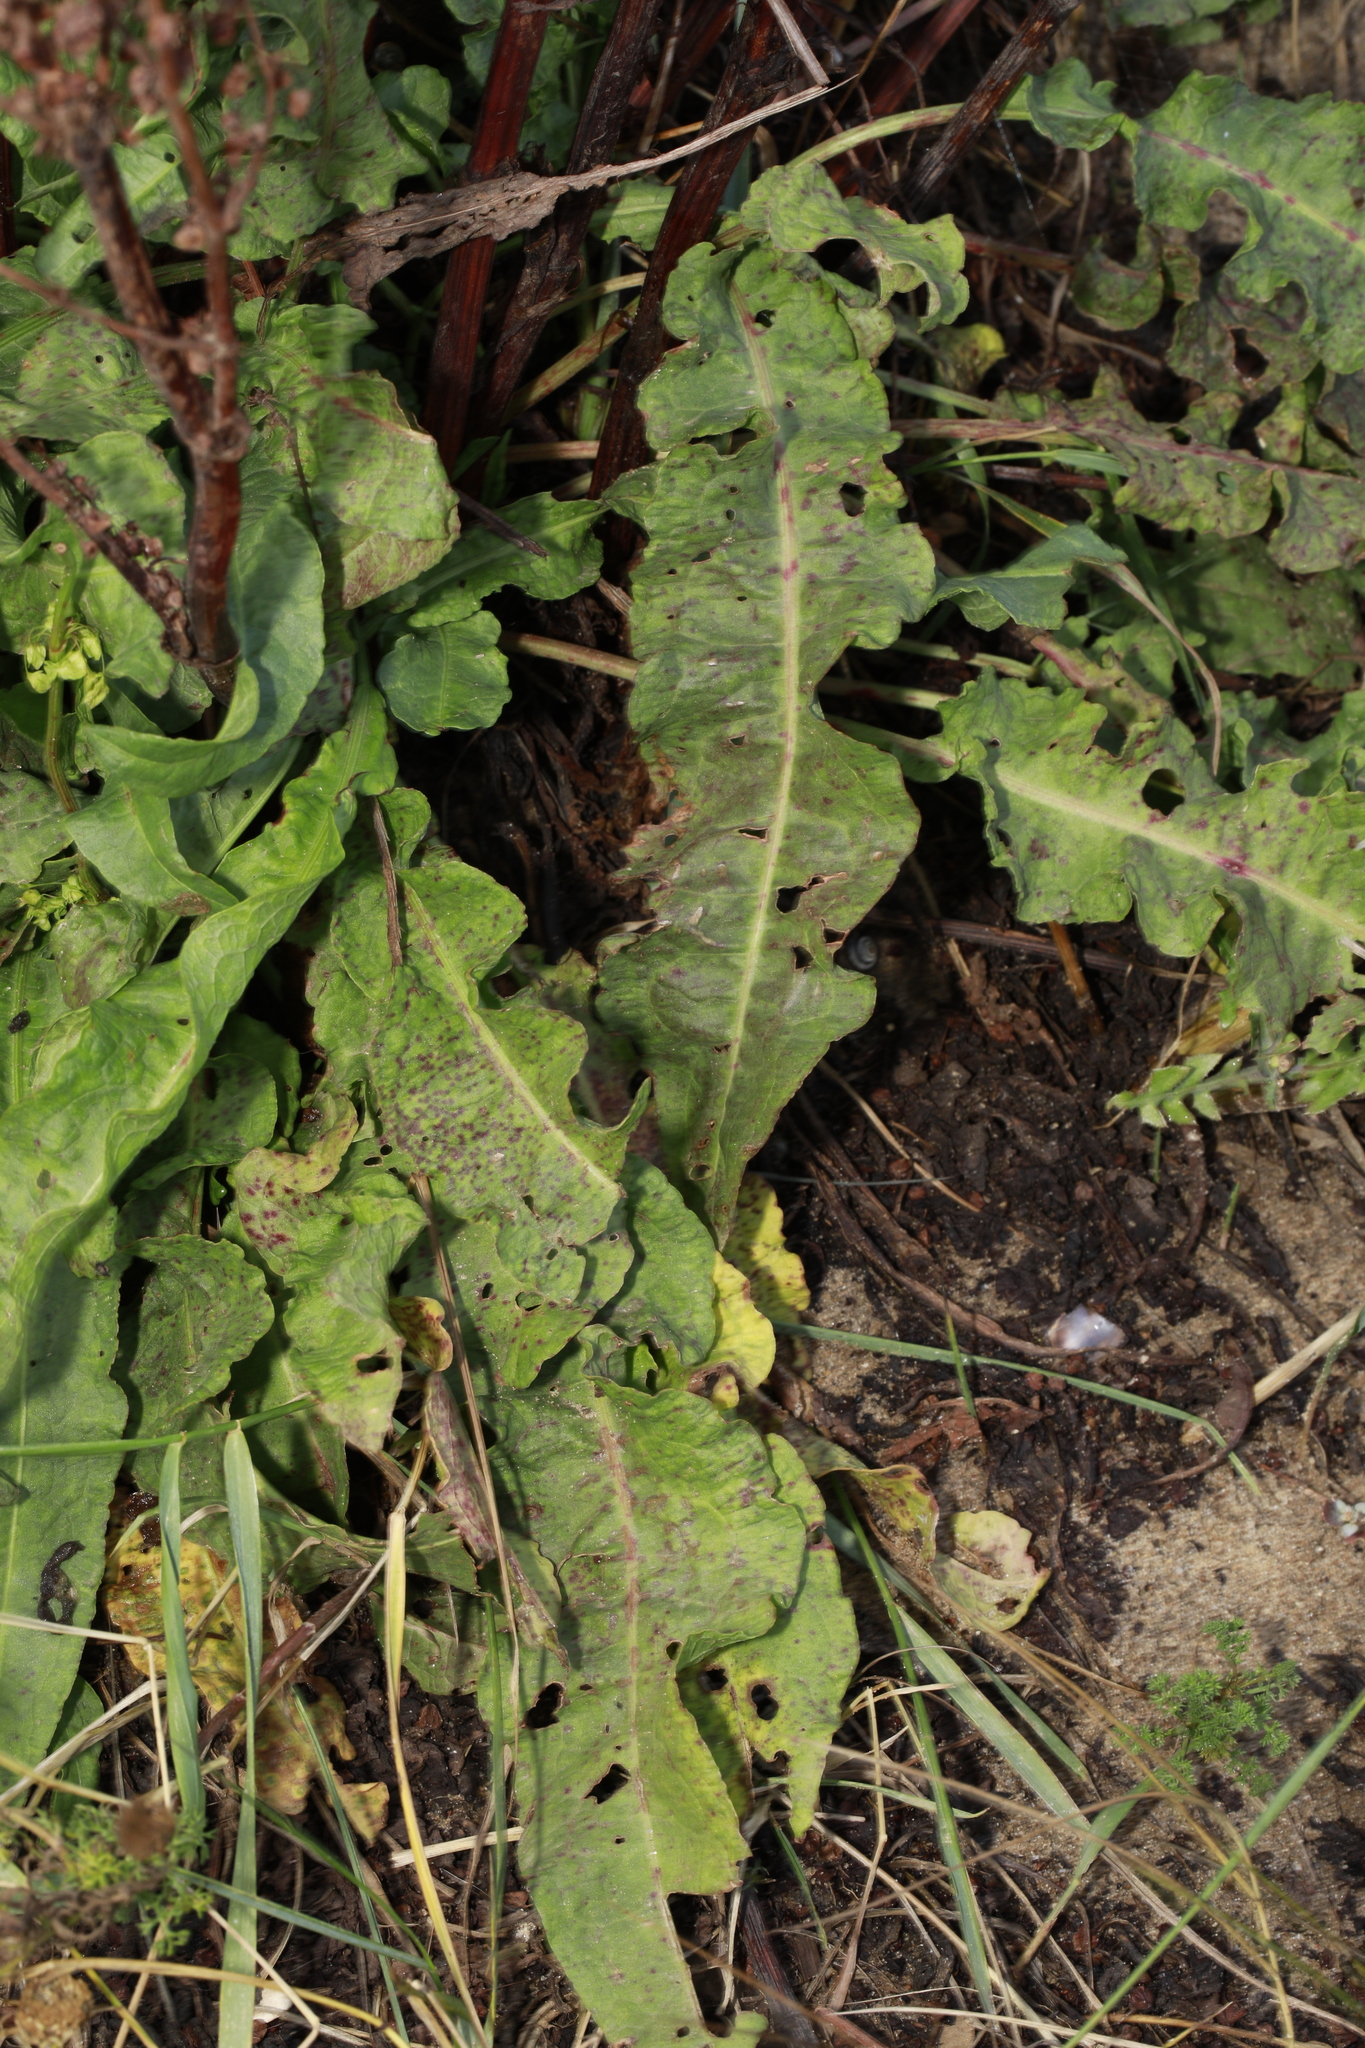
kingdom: Plantae
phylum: Tracheophyta
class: Magnoliopsida
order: Caryophyllales
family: Polygonaceae
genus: Rumex
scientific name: Rumex crispus
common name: Curled dock
